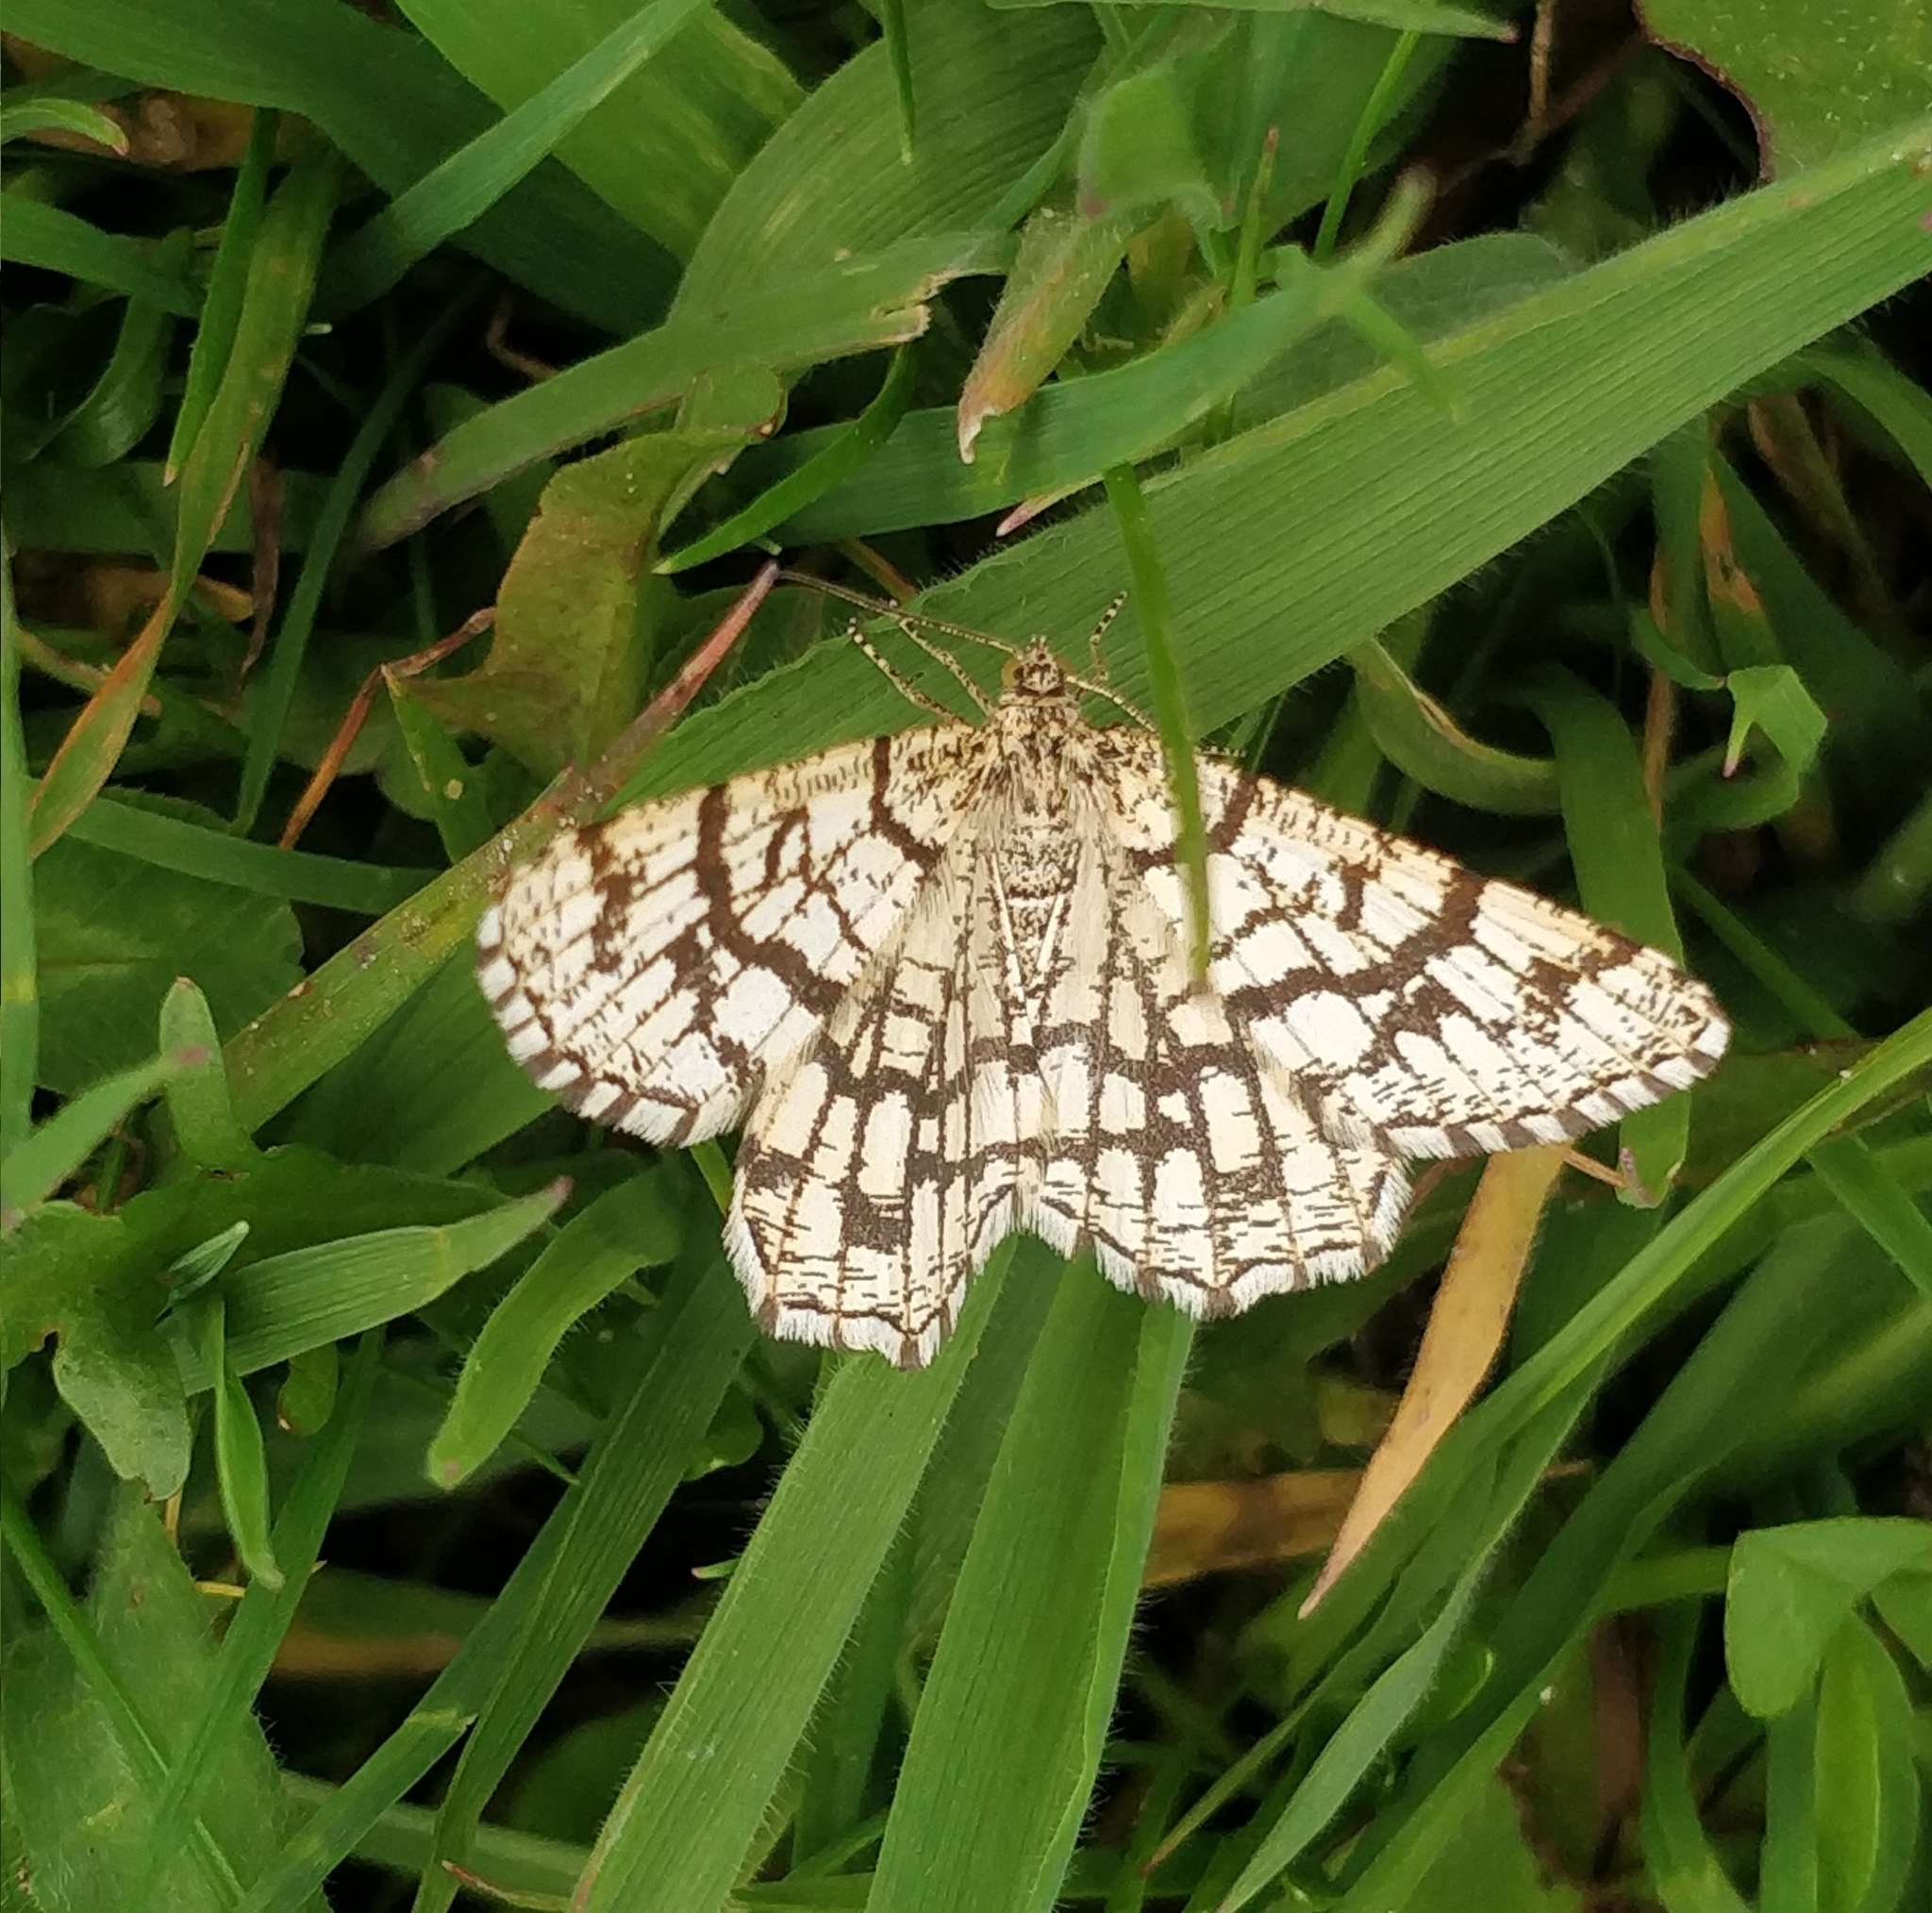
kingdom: Animalia
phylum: Arthropoda
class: Insecta
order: Lepidoptera
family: Geometridae
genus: Chiasmia
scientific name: Chiasmia clathrata
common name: Latticed heath
